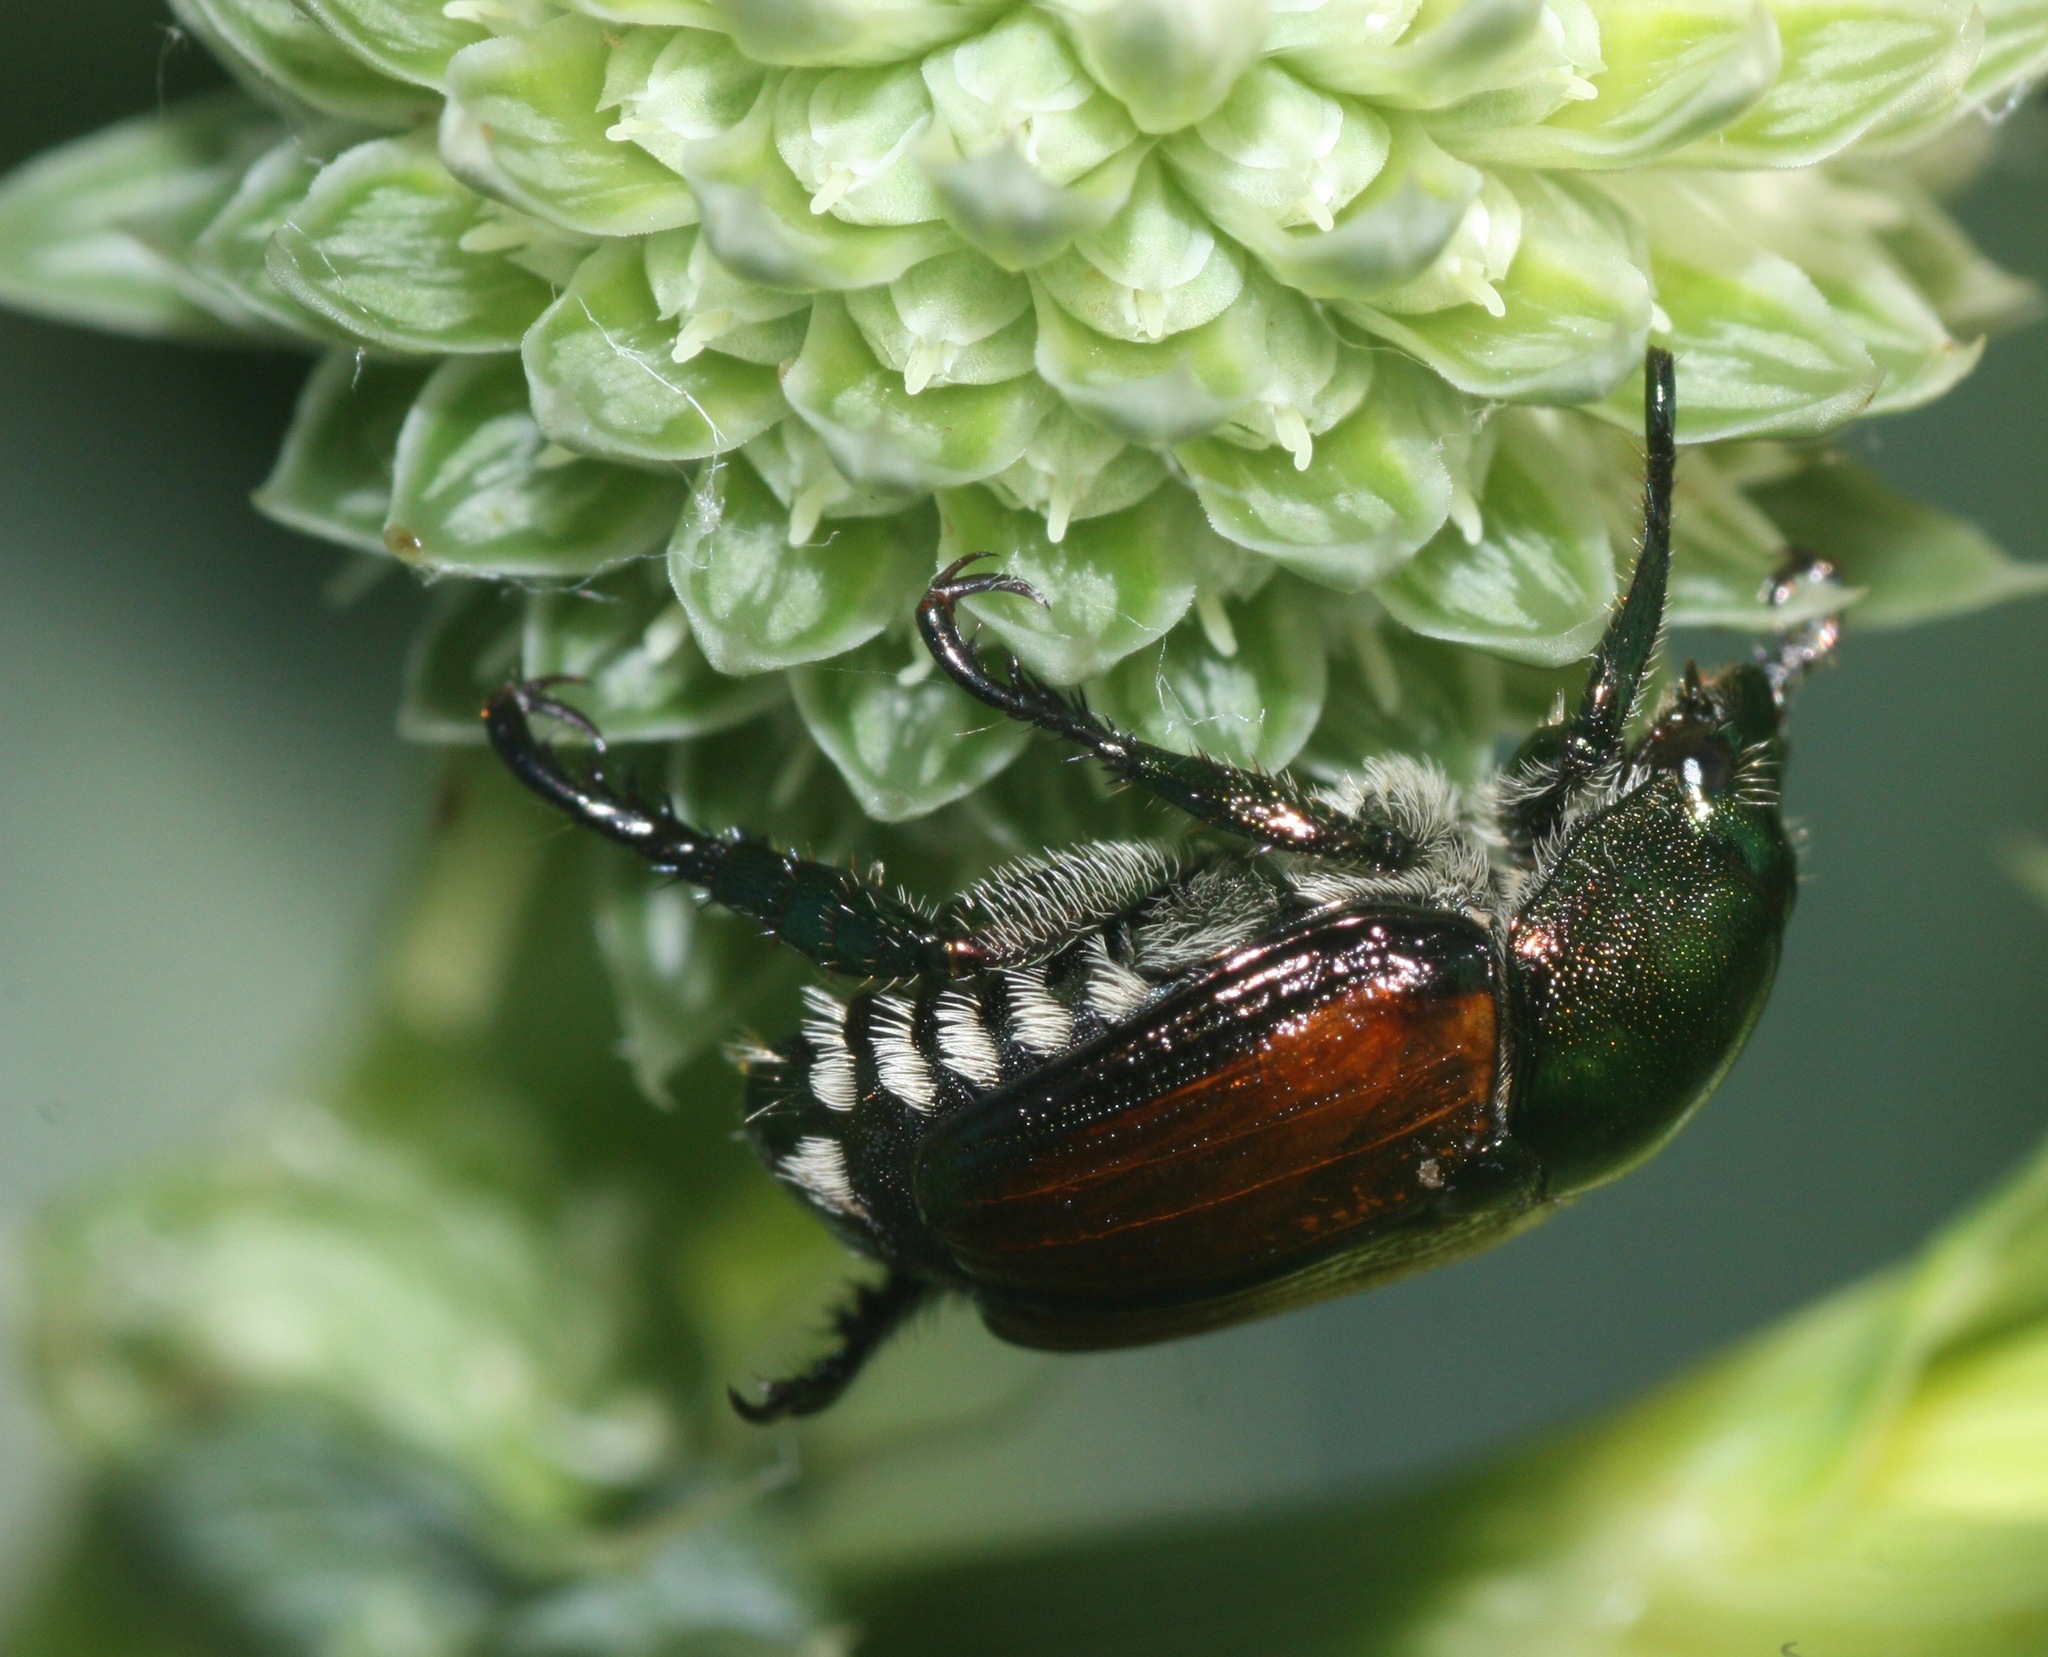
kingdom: Animalia
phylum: Arthropoda
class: Insecta
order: Coleoptera
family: Scarabaeidae
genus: Popillia
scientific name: Popillia japonica
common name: Japanese beetle
